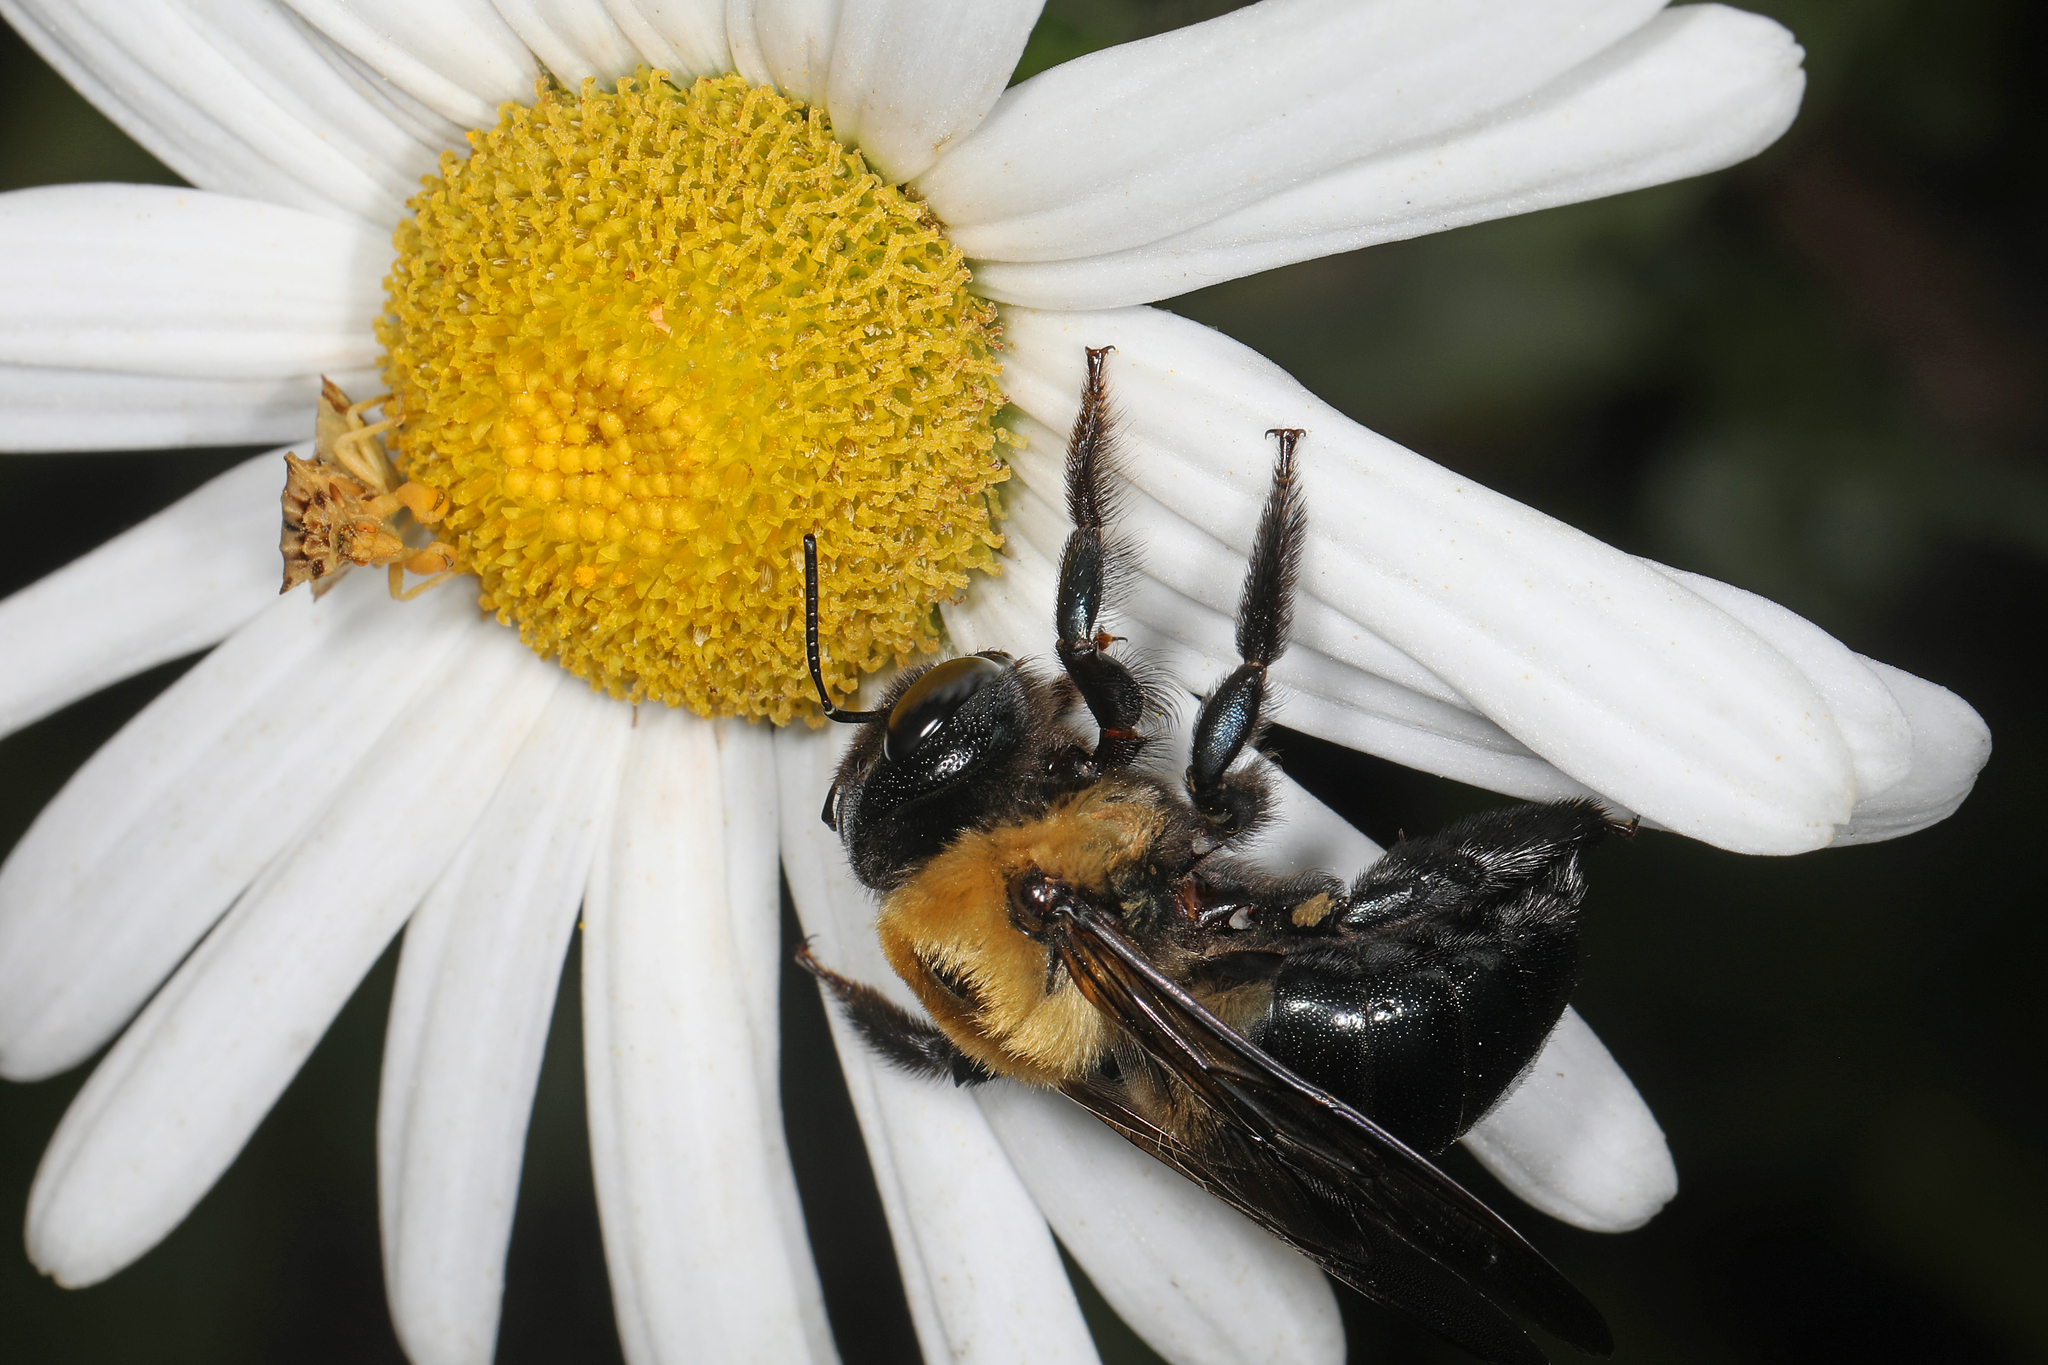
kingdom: Animalia
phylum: Arthropoda
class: Insecta
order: Hymenoptera
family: Apidae
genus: Xylocopa
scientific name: Xylocopa virginica
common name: Carpenter bee
